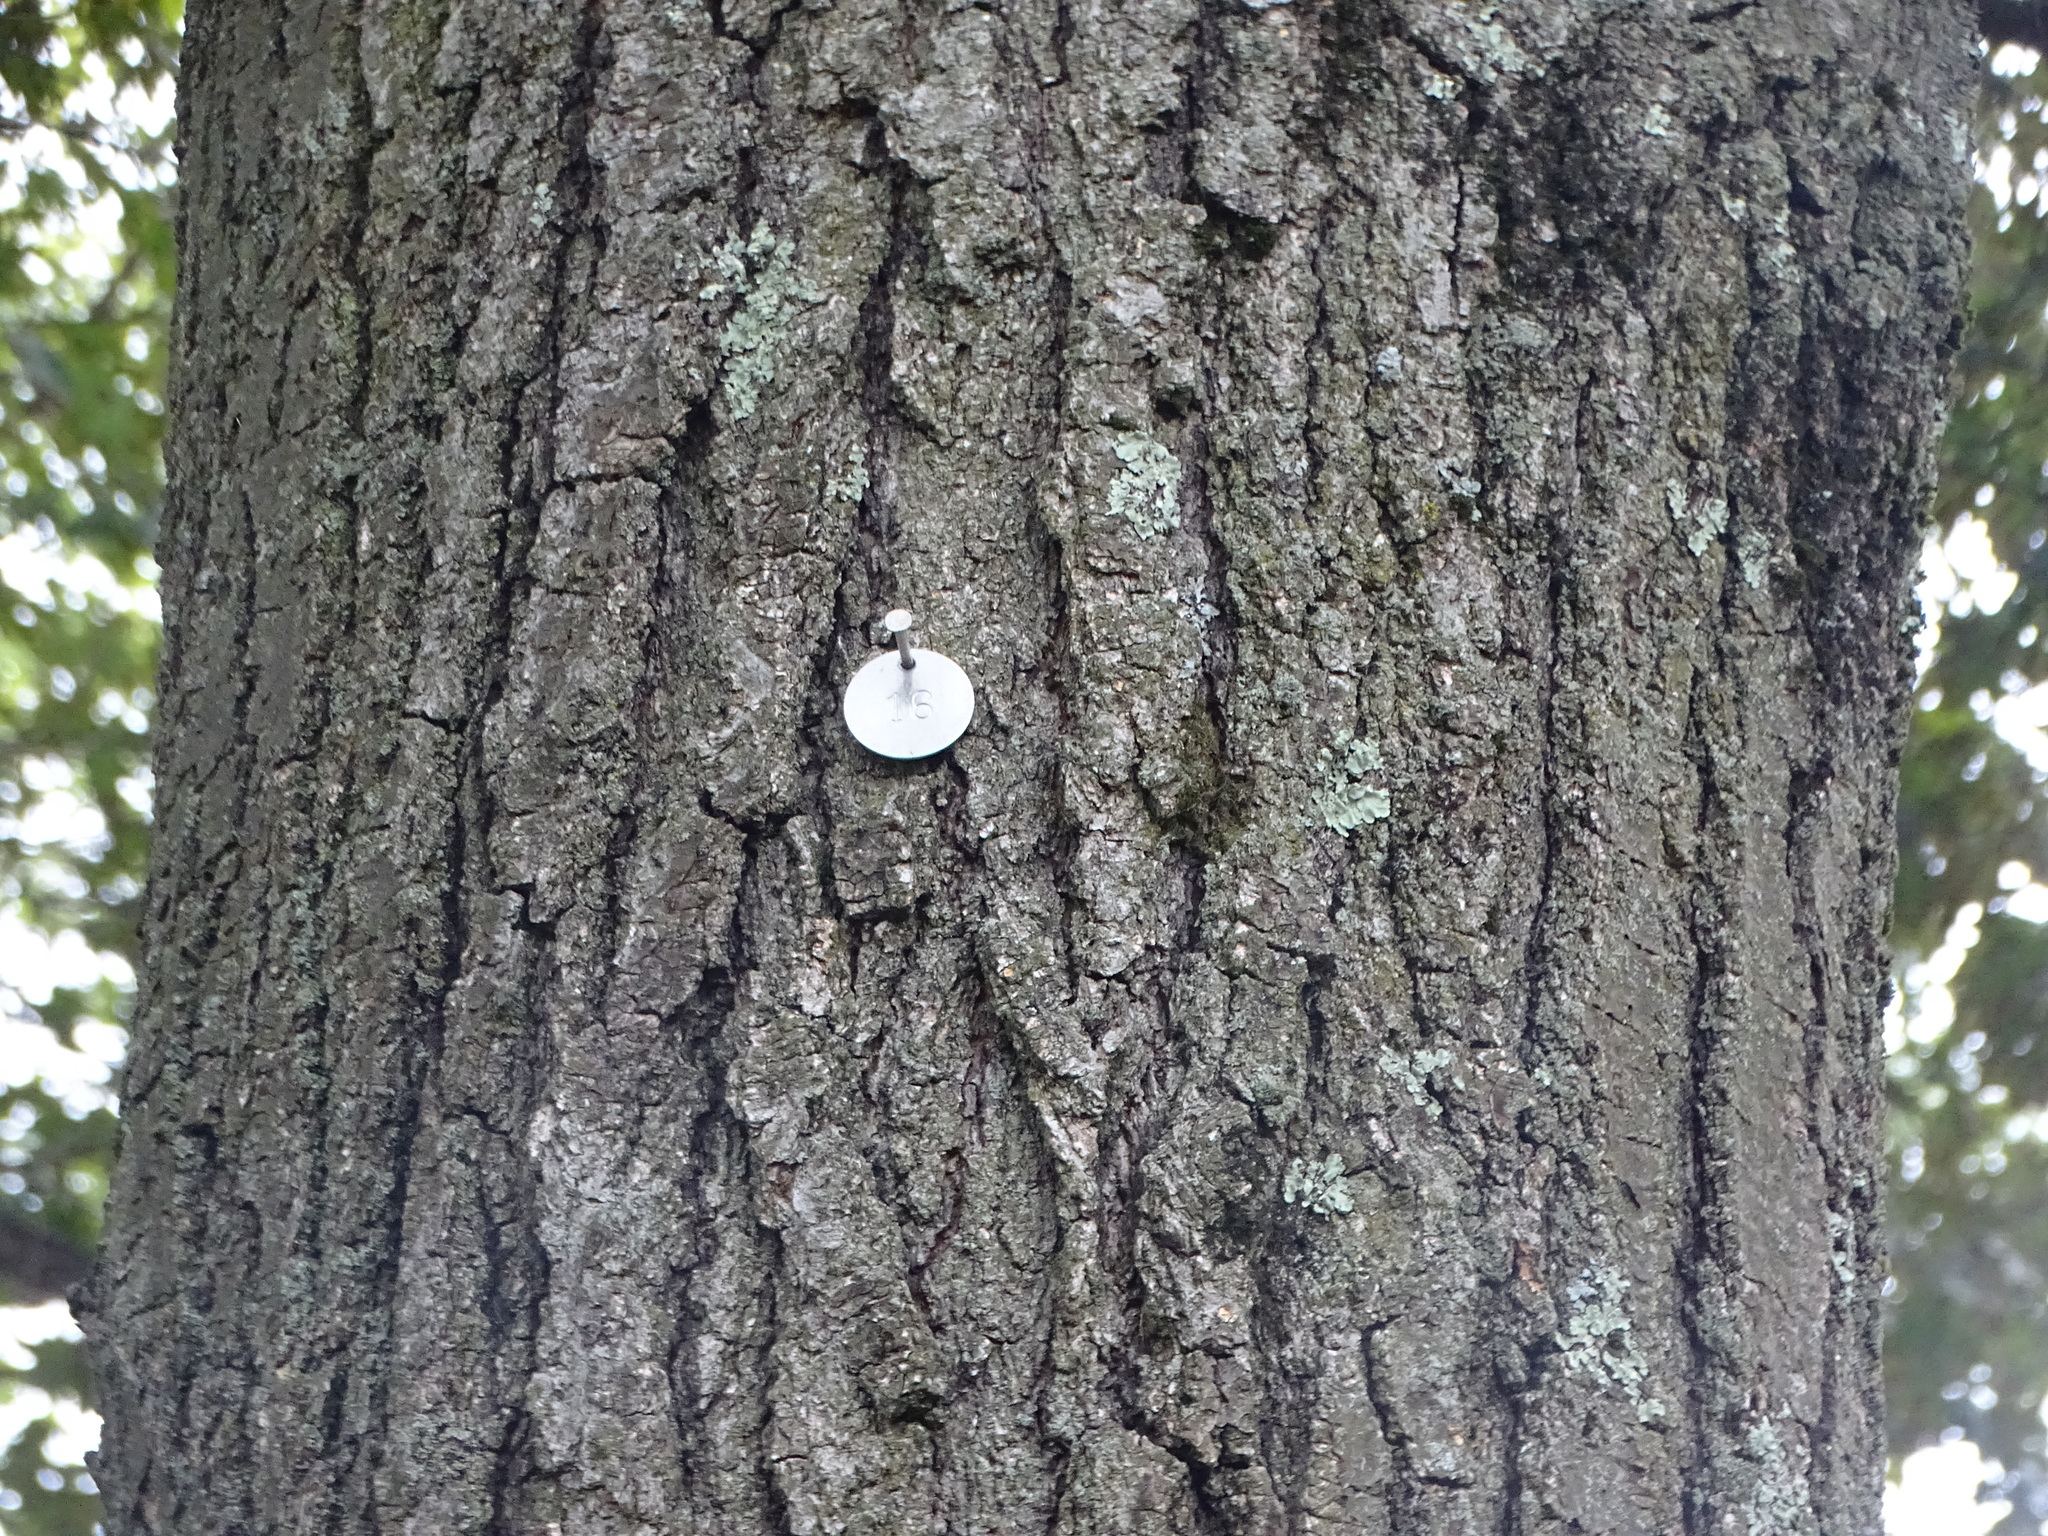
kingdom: Plantae
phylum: Tracheophyta
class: Magnoliopsida
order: Fagales
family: Fagaceae
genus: Quercus
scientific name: Quercus rubra
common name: Red oak
